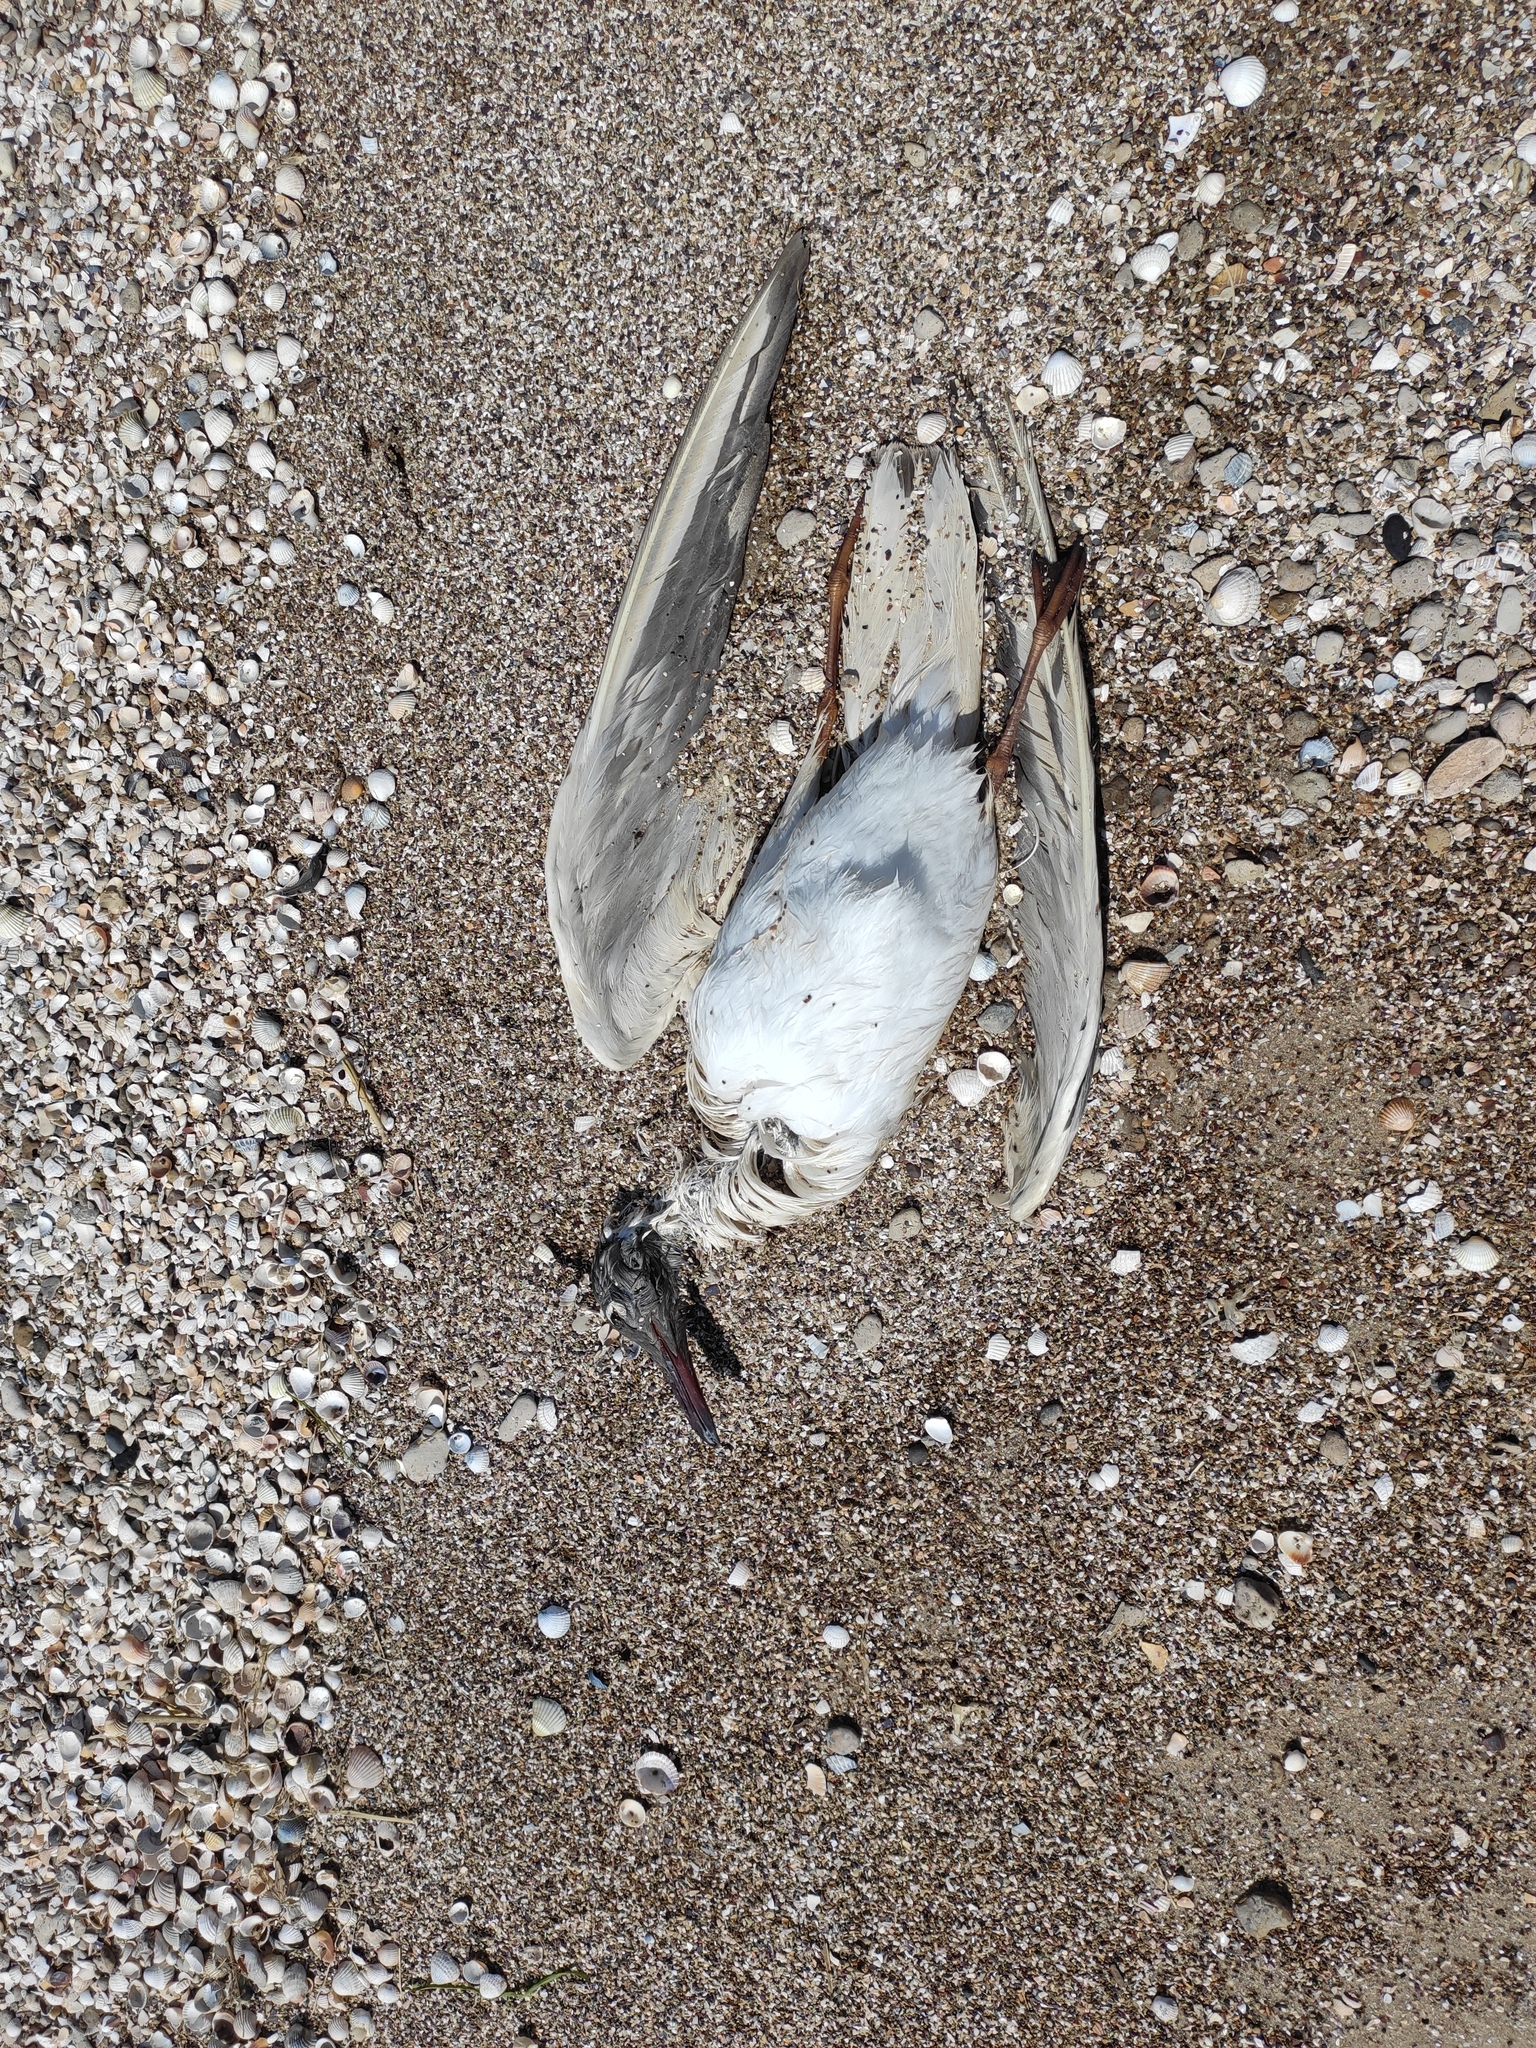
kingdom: Animalia
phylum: Chordata
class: Aves
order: Charadriiformes
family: Laridae
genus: Chroicocephalus
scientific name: Chroicocephalus ridibundus
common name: Black-headed gull
